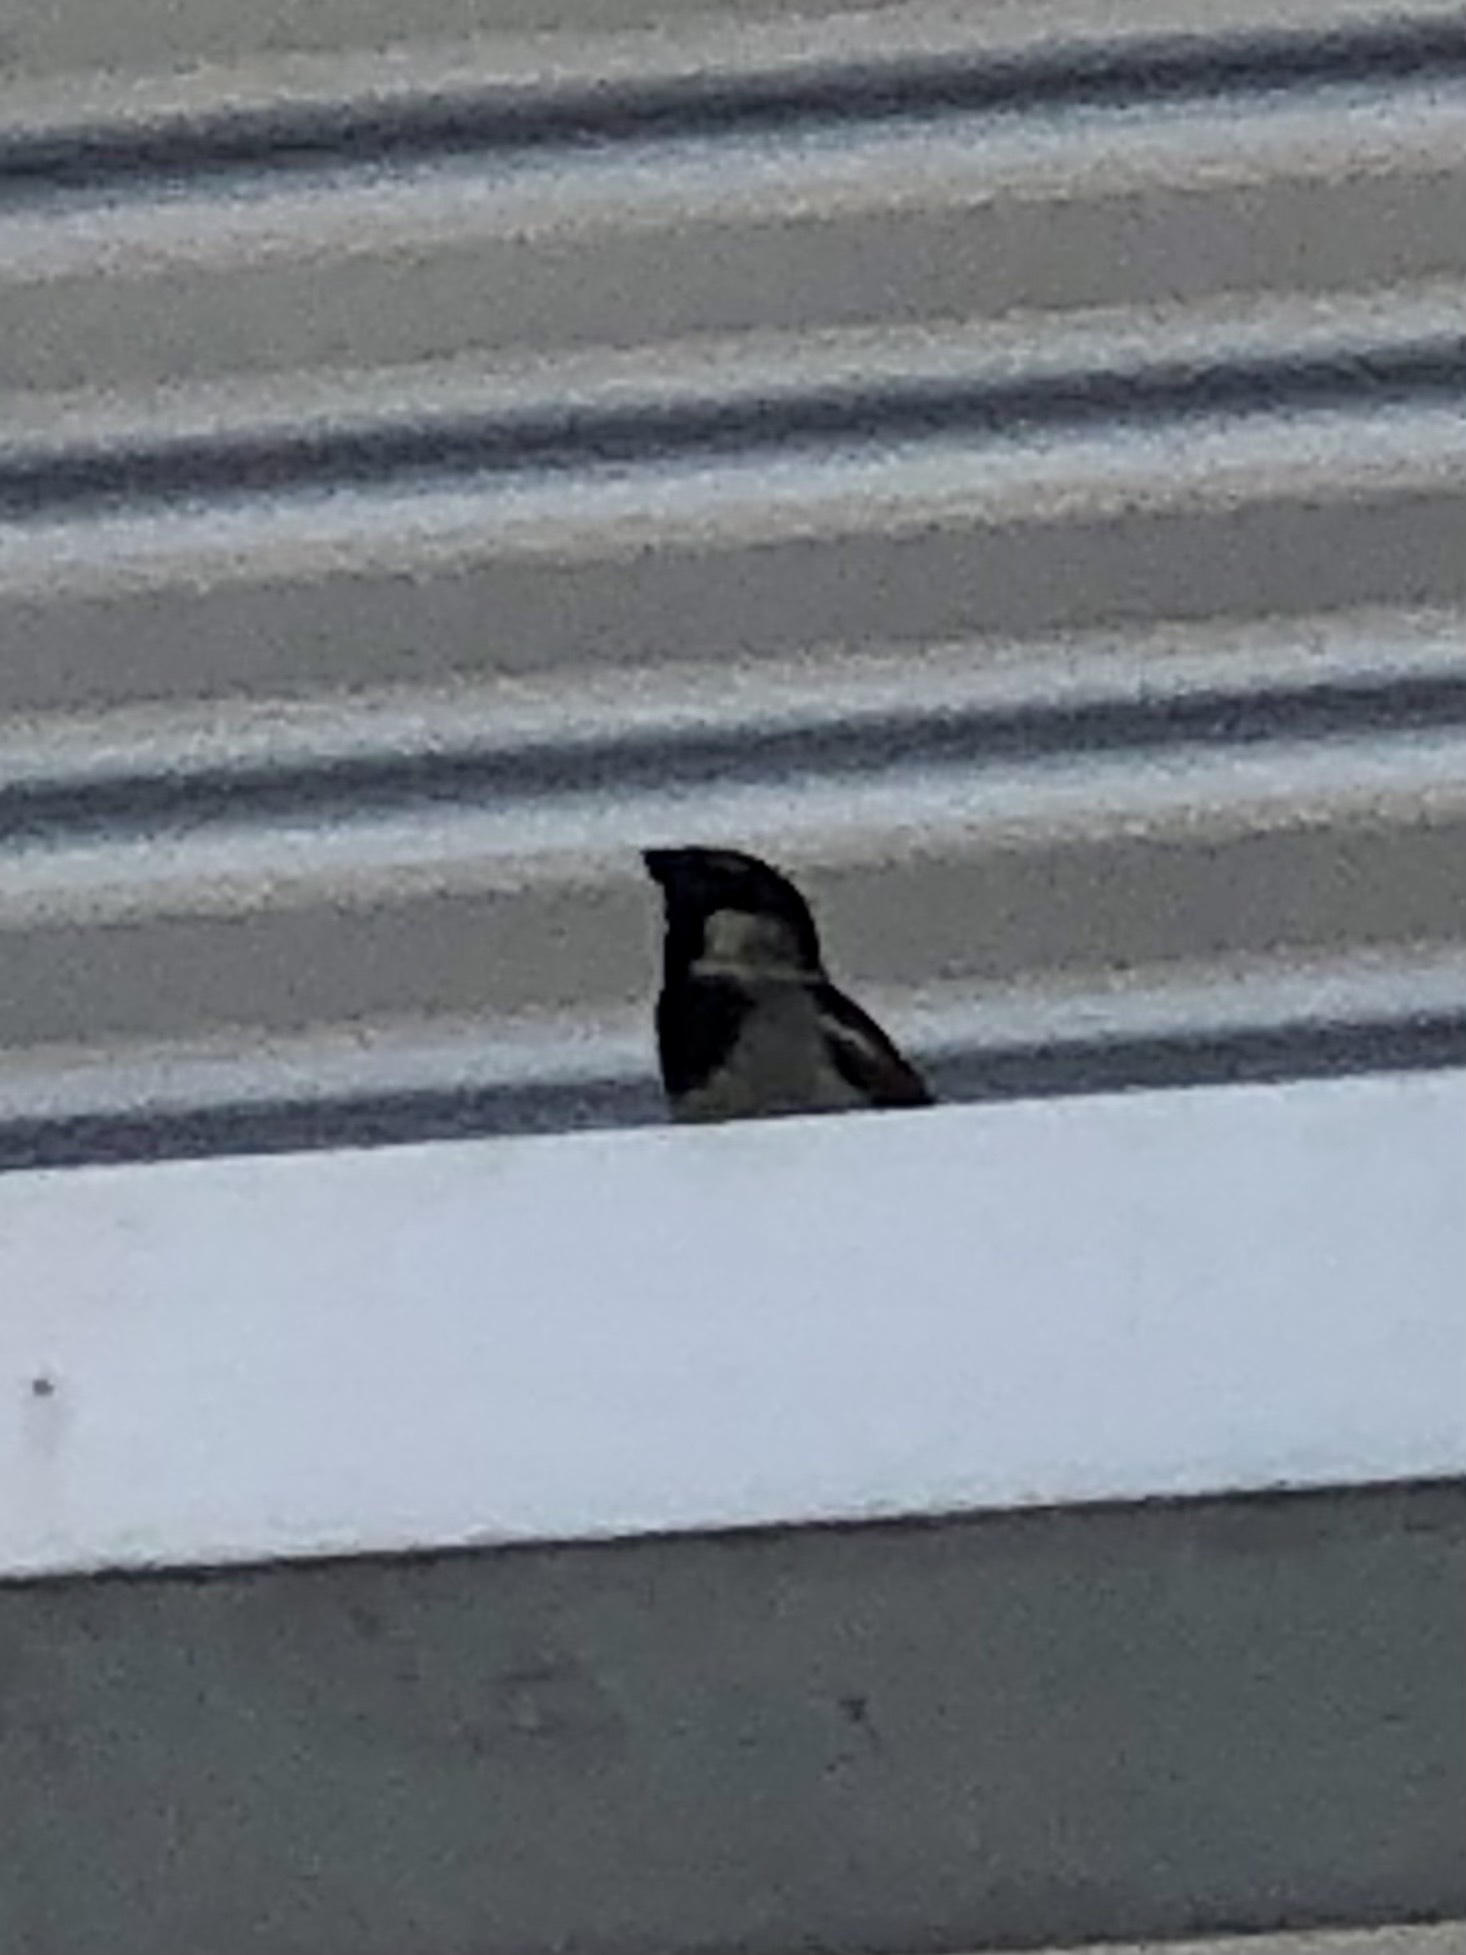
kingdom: Animalia
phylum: Chordata
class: Aves
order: Passeriformes
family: Passeridae
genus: Passer
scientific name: Passer domesticus
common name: House sparrow
